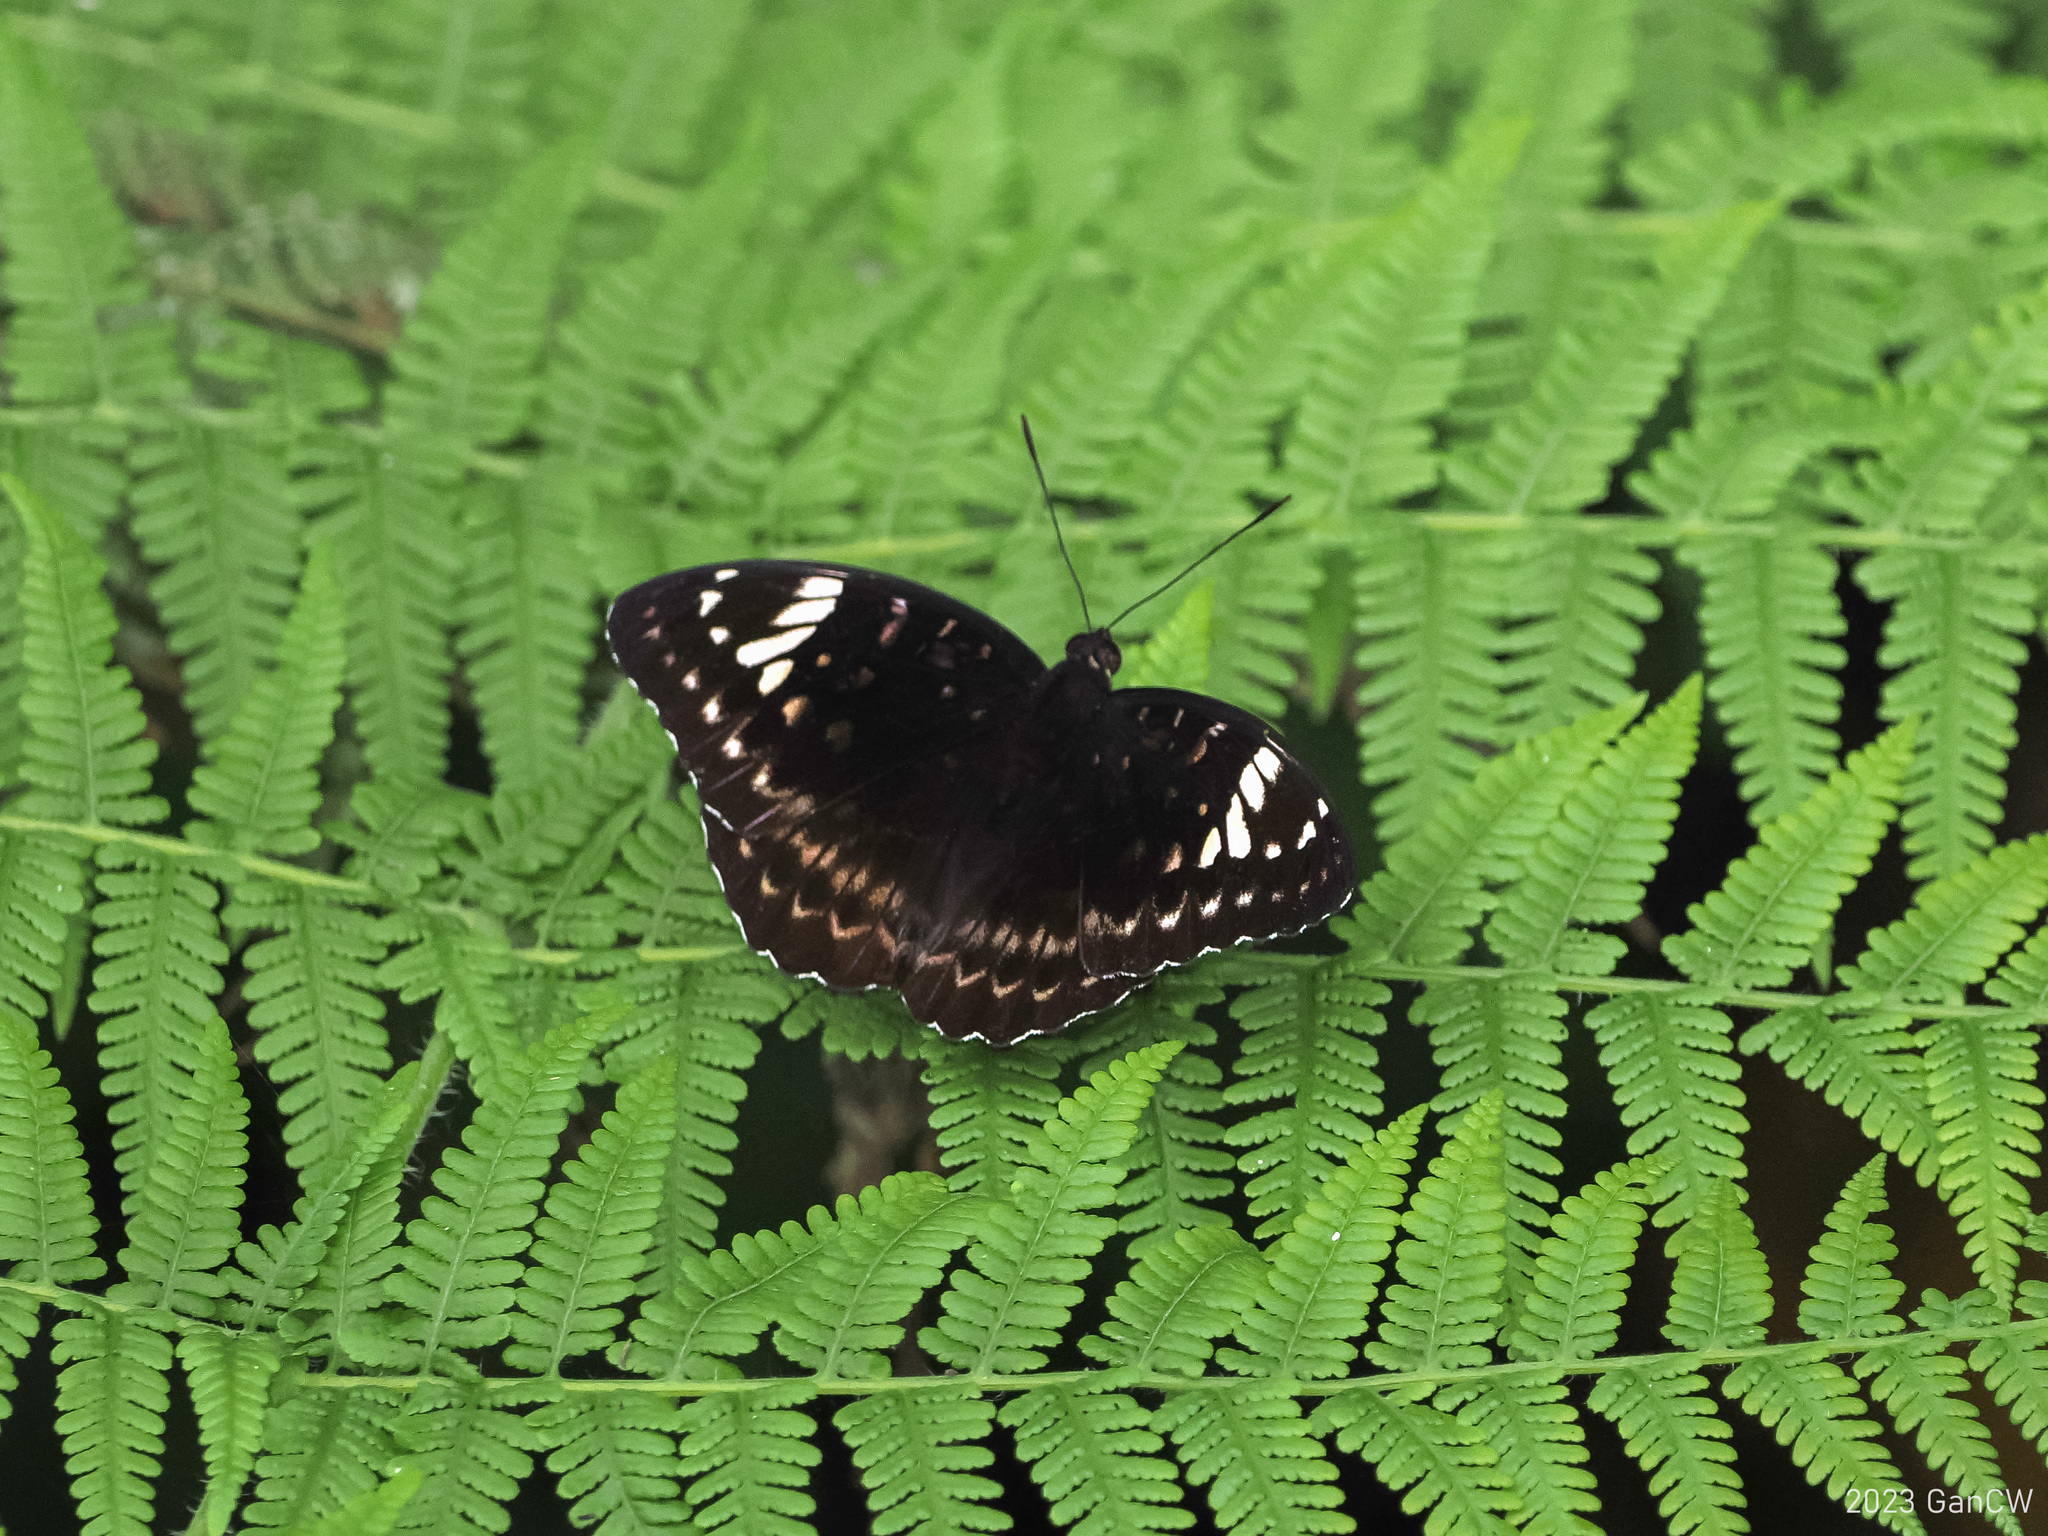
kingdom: Animalia
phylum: Arthropoda
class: Insecta
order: Lepidoptera
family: Nymphalidae
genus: Lexias
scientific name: Lexias aeetes
